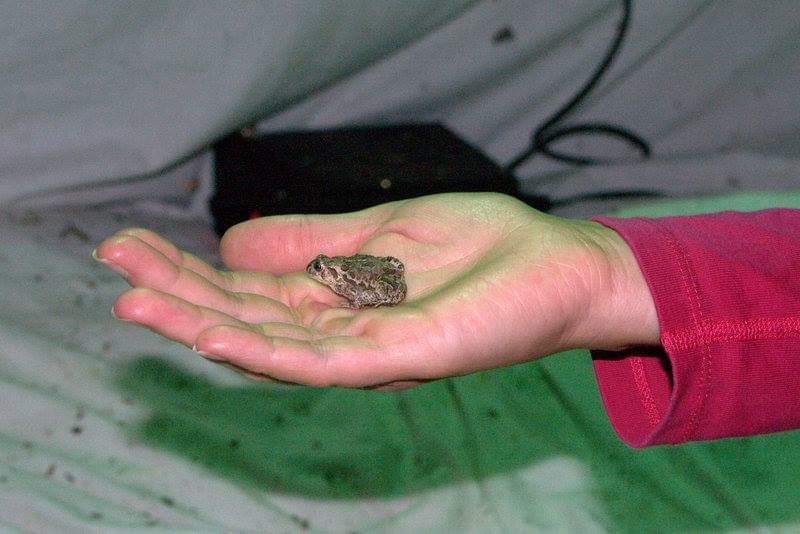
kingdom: Animalia
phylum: Chordata
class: Amphibia
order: Anura
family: Bufonidae
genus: Anaxyrus
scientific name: Anaxyrus hemiophrys
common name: Canadian toad
